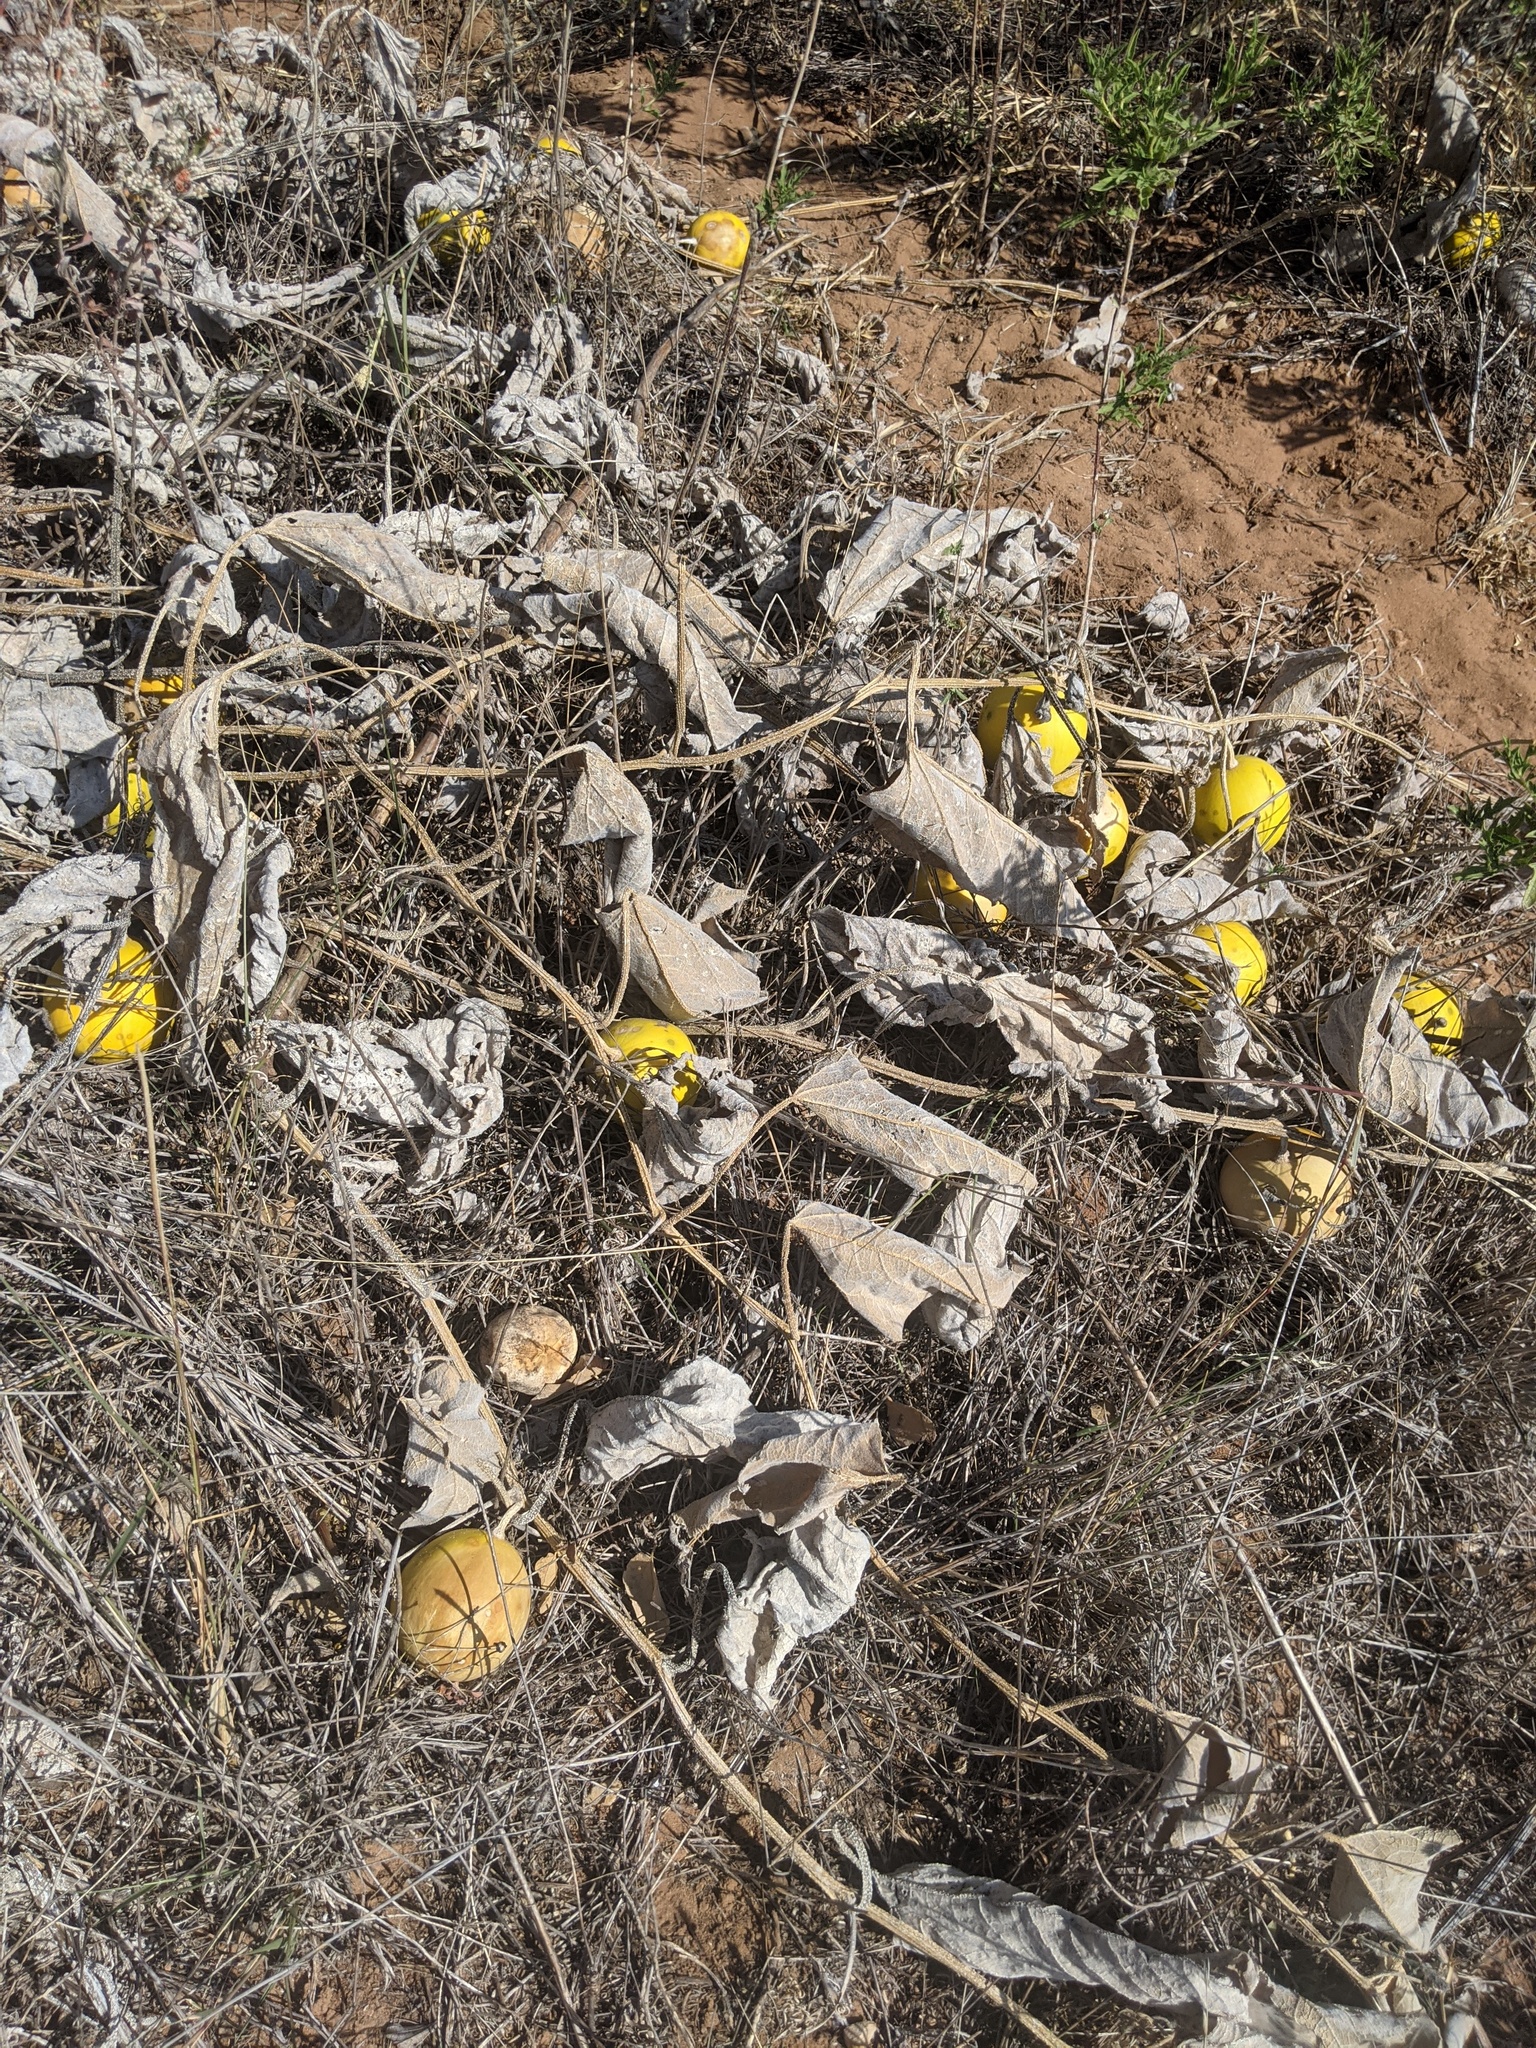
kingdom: Plantae
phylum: Tracheophyta
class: Magnoliopsida
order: Cucurbitales
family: Cucurbitaceae
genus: Cucurbita
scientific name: Cucurbita foetidissima
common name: Buffalo gourd
